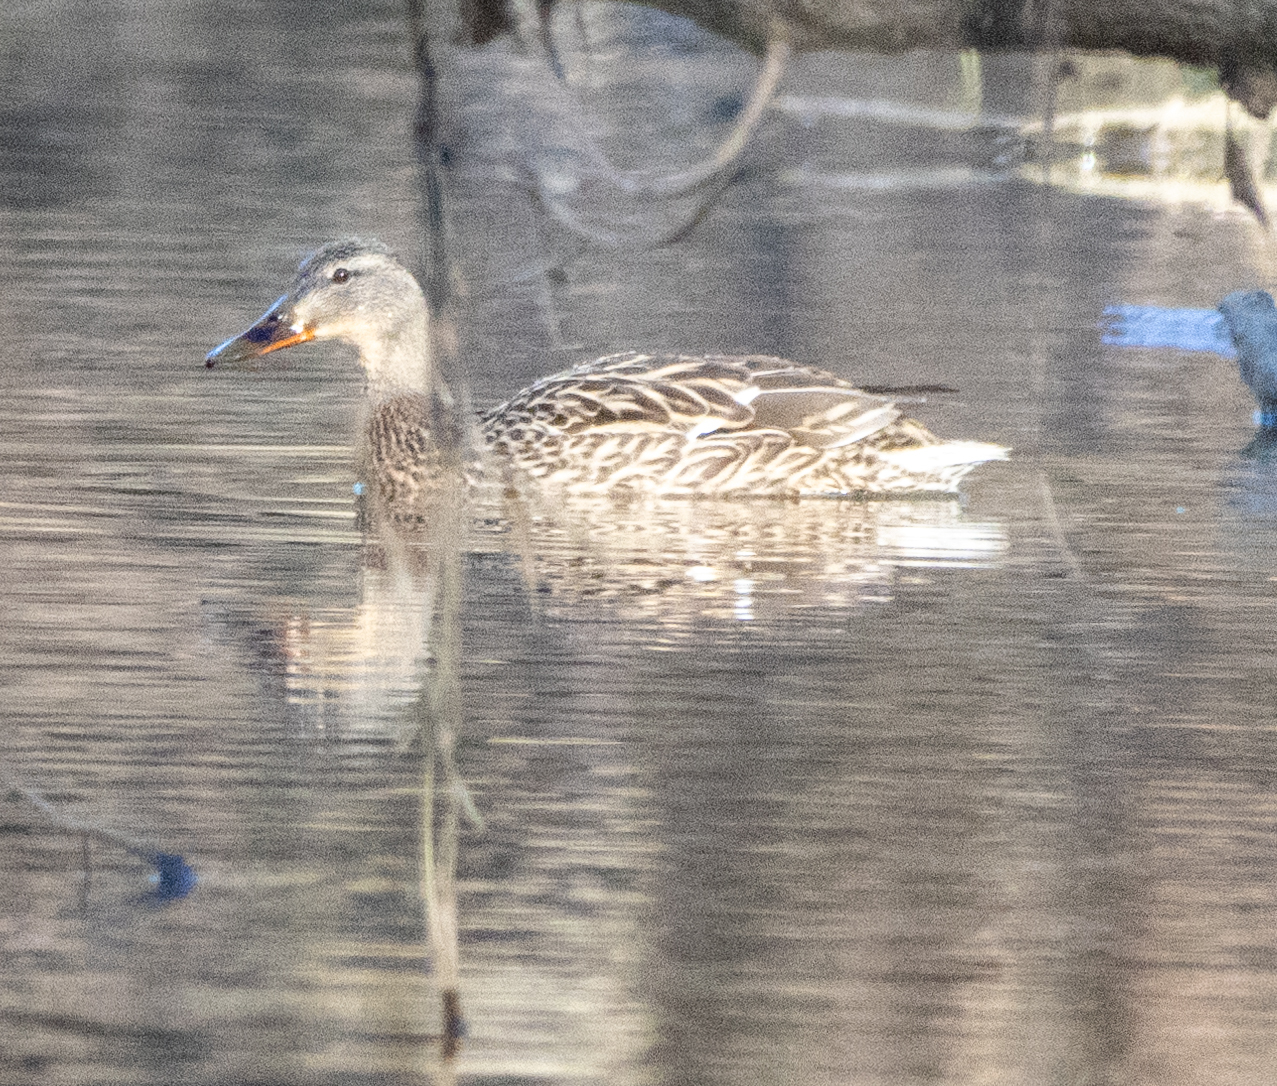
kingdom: Animalia
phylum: Chordata
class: Aves
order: Anseriformes
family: Anatidae
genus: Anas
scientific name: Anas platyrhynchos
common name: Mallard
